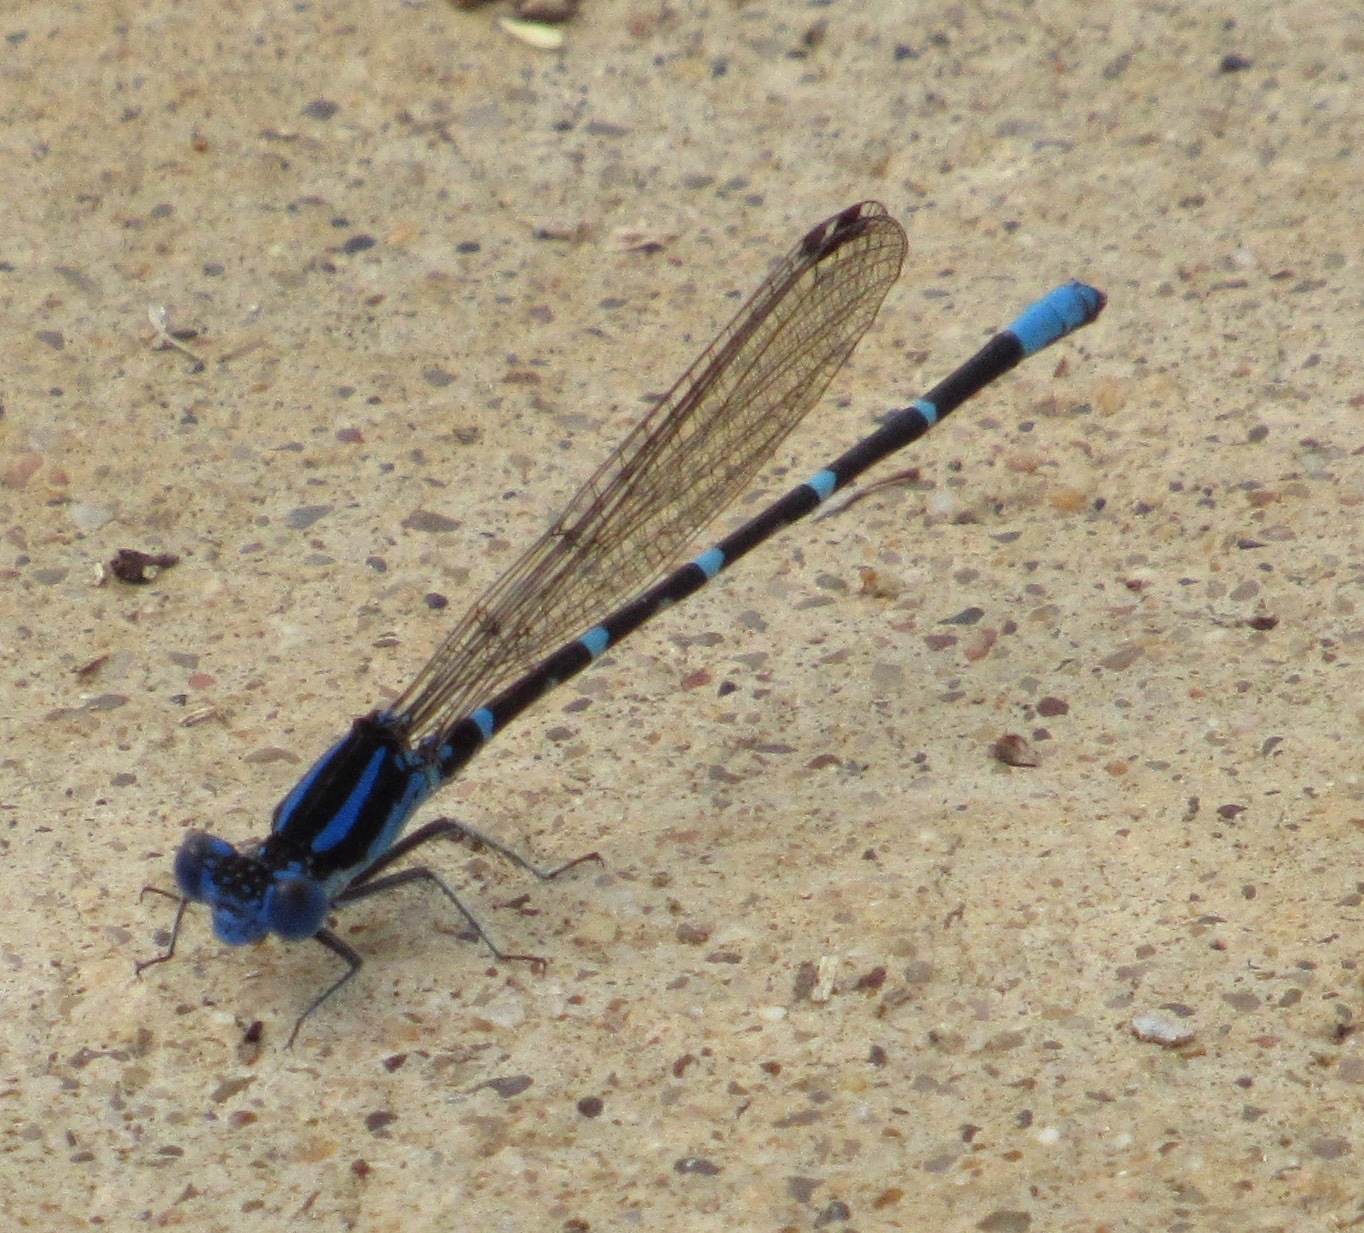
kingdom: Animalia
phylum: Arthropoda
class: Insecta
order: Odonata
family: Coenagrionidae
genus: Argia
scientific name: Argia sedula
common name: Blue-ringed dancer
